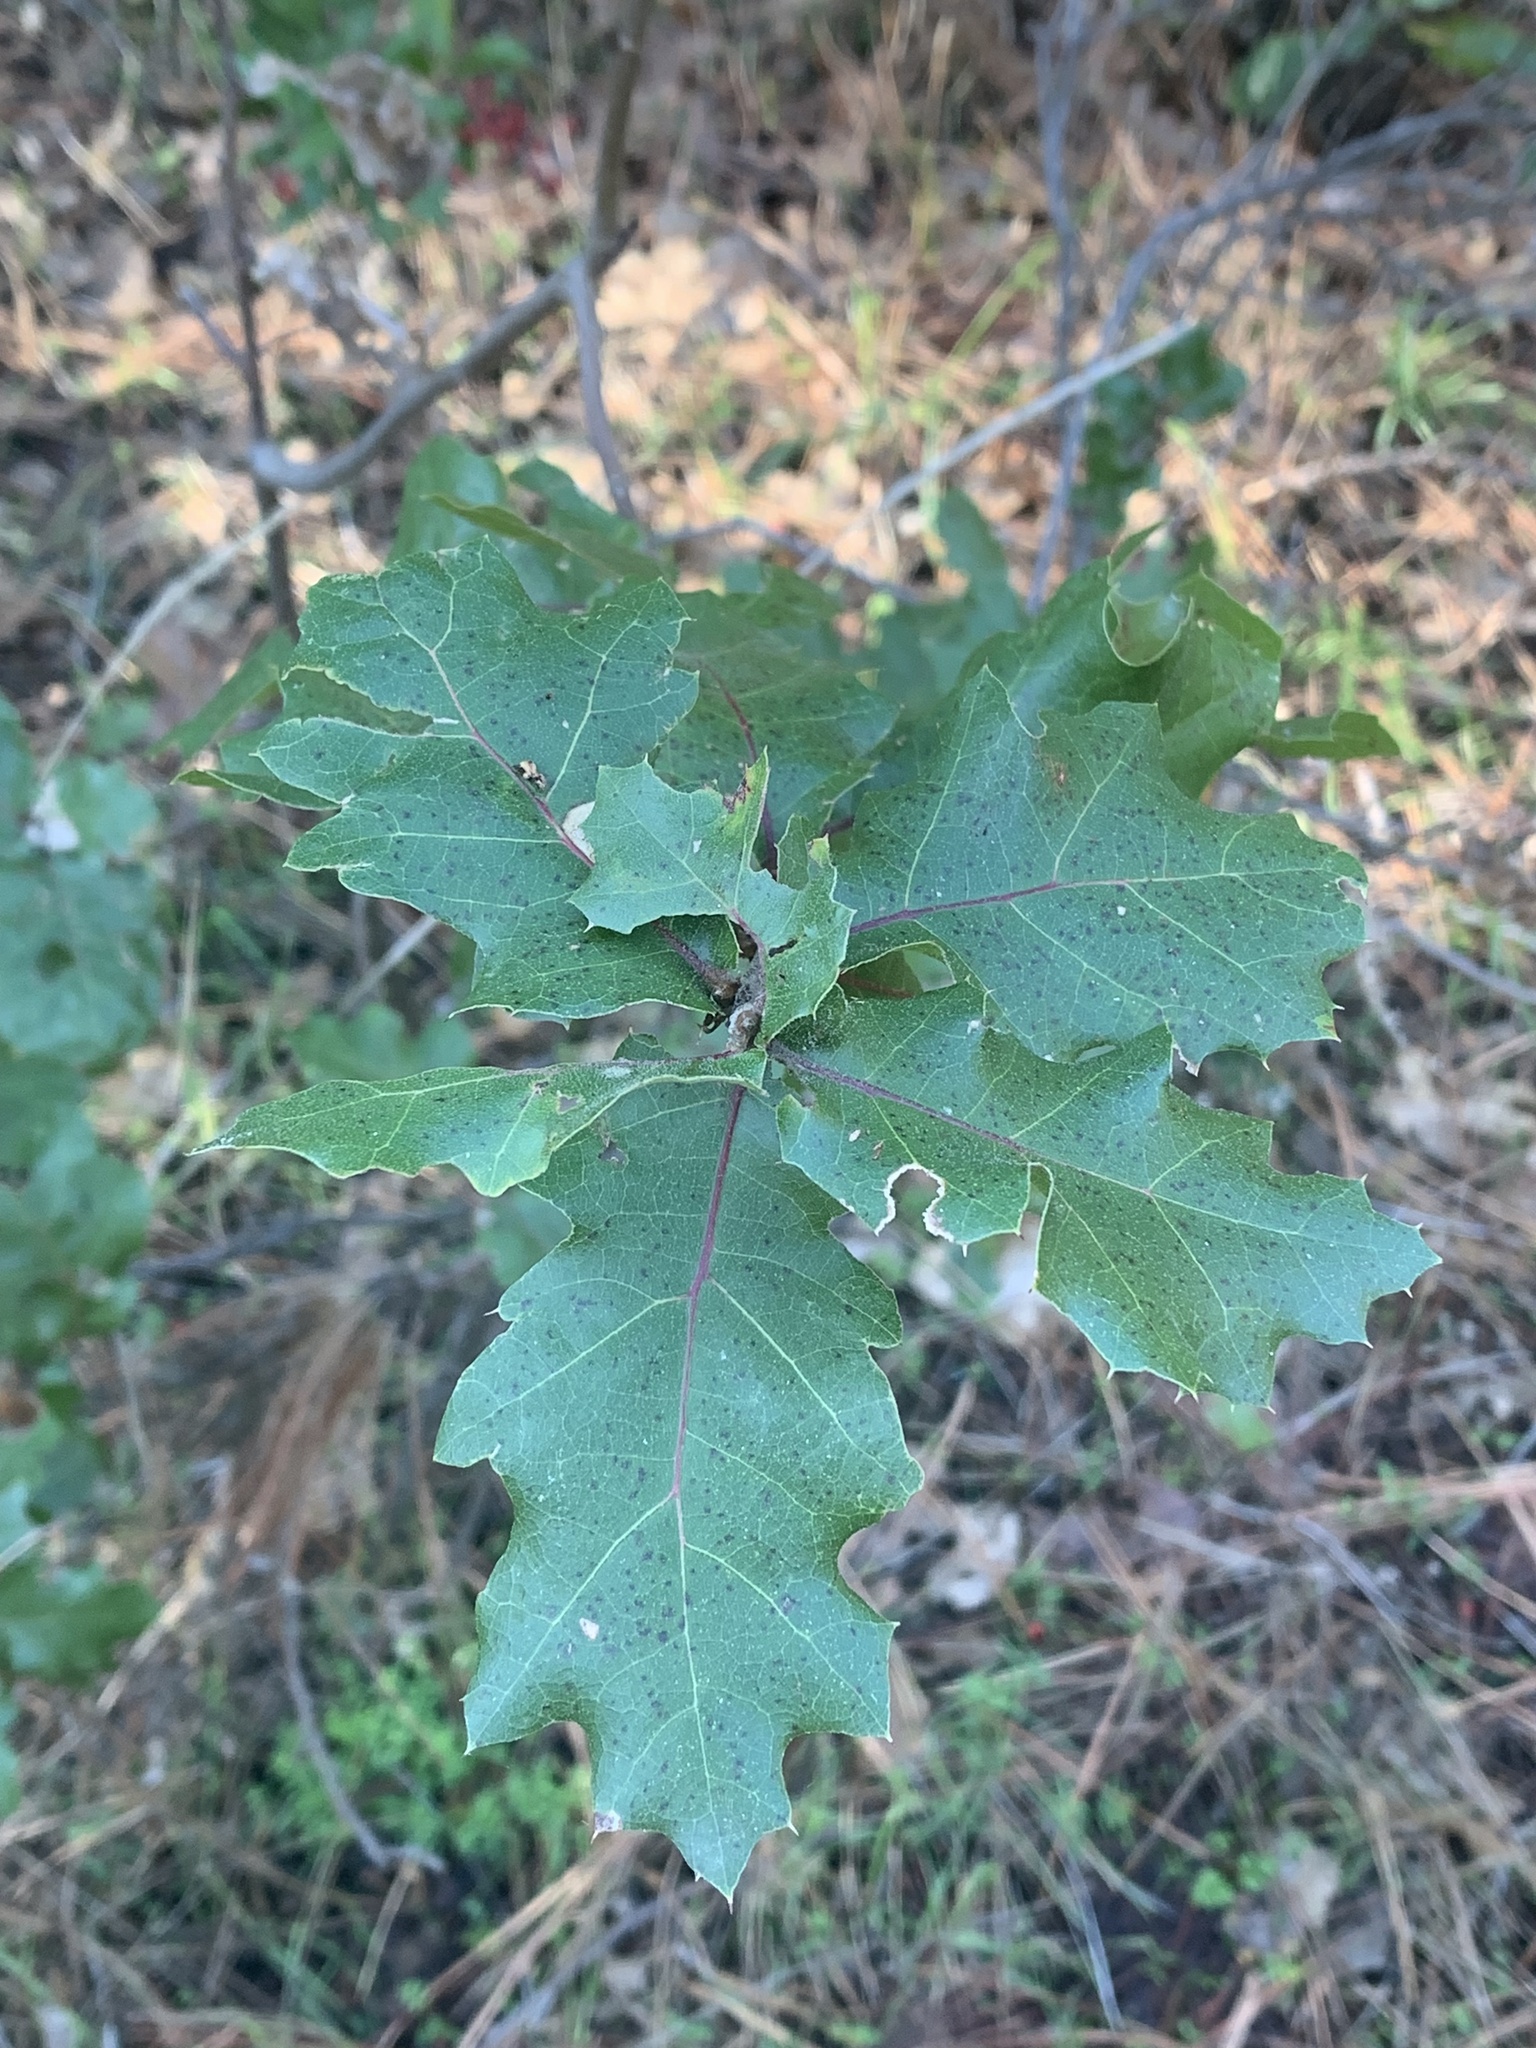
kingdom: Plantae
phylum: Tracheophyta
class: Magnoliopsida
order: Fagales
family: Fagaceae
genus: Quercus
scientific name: Quercus morehus
